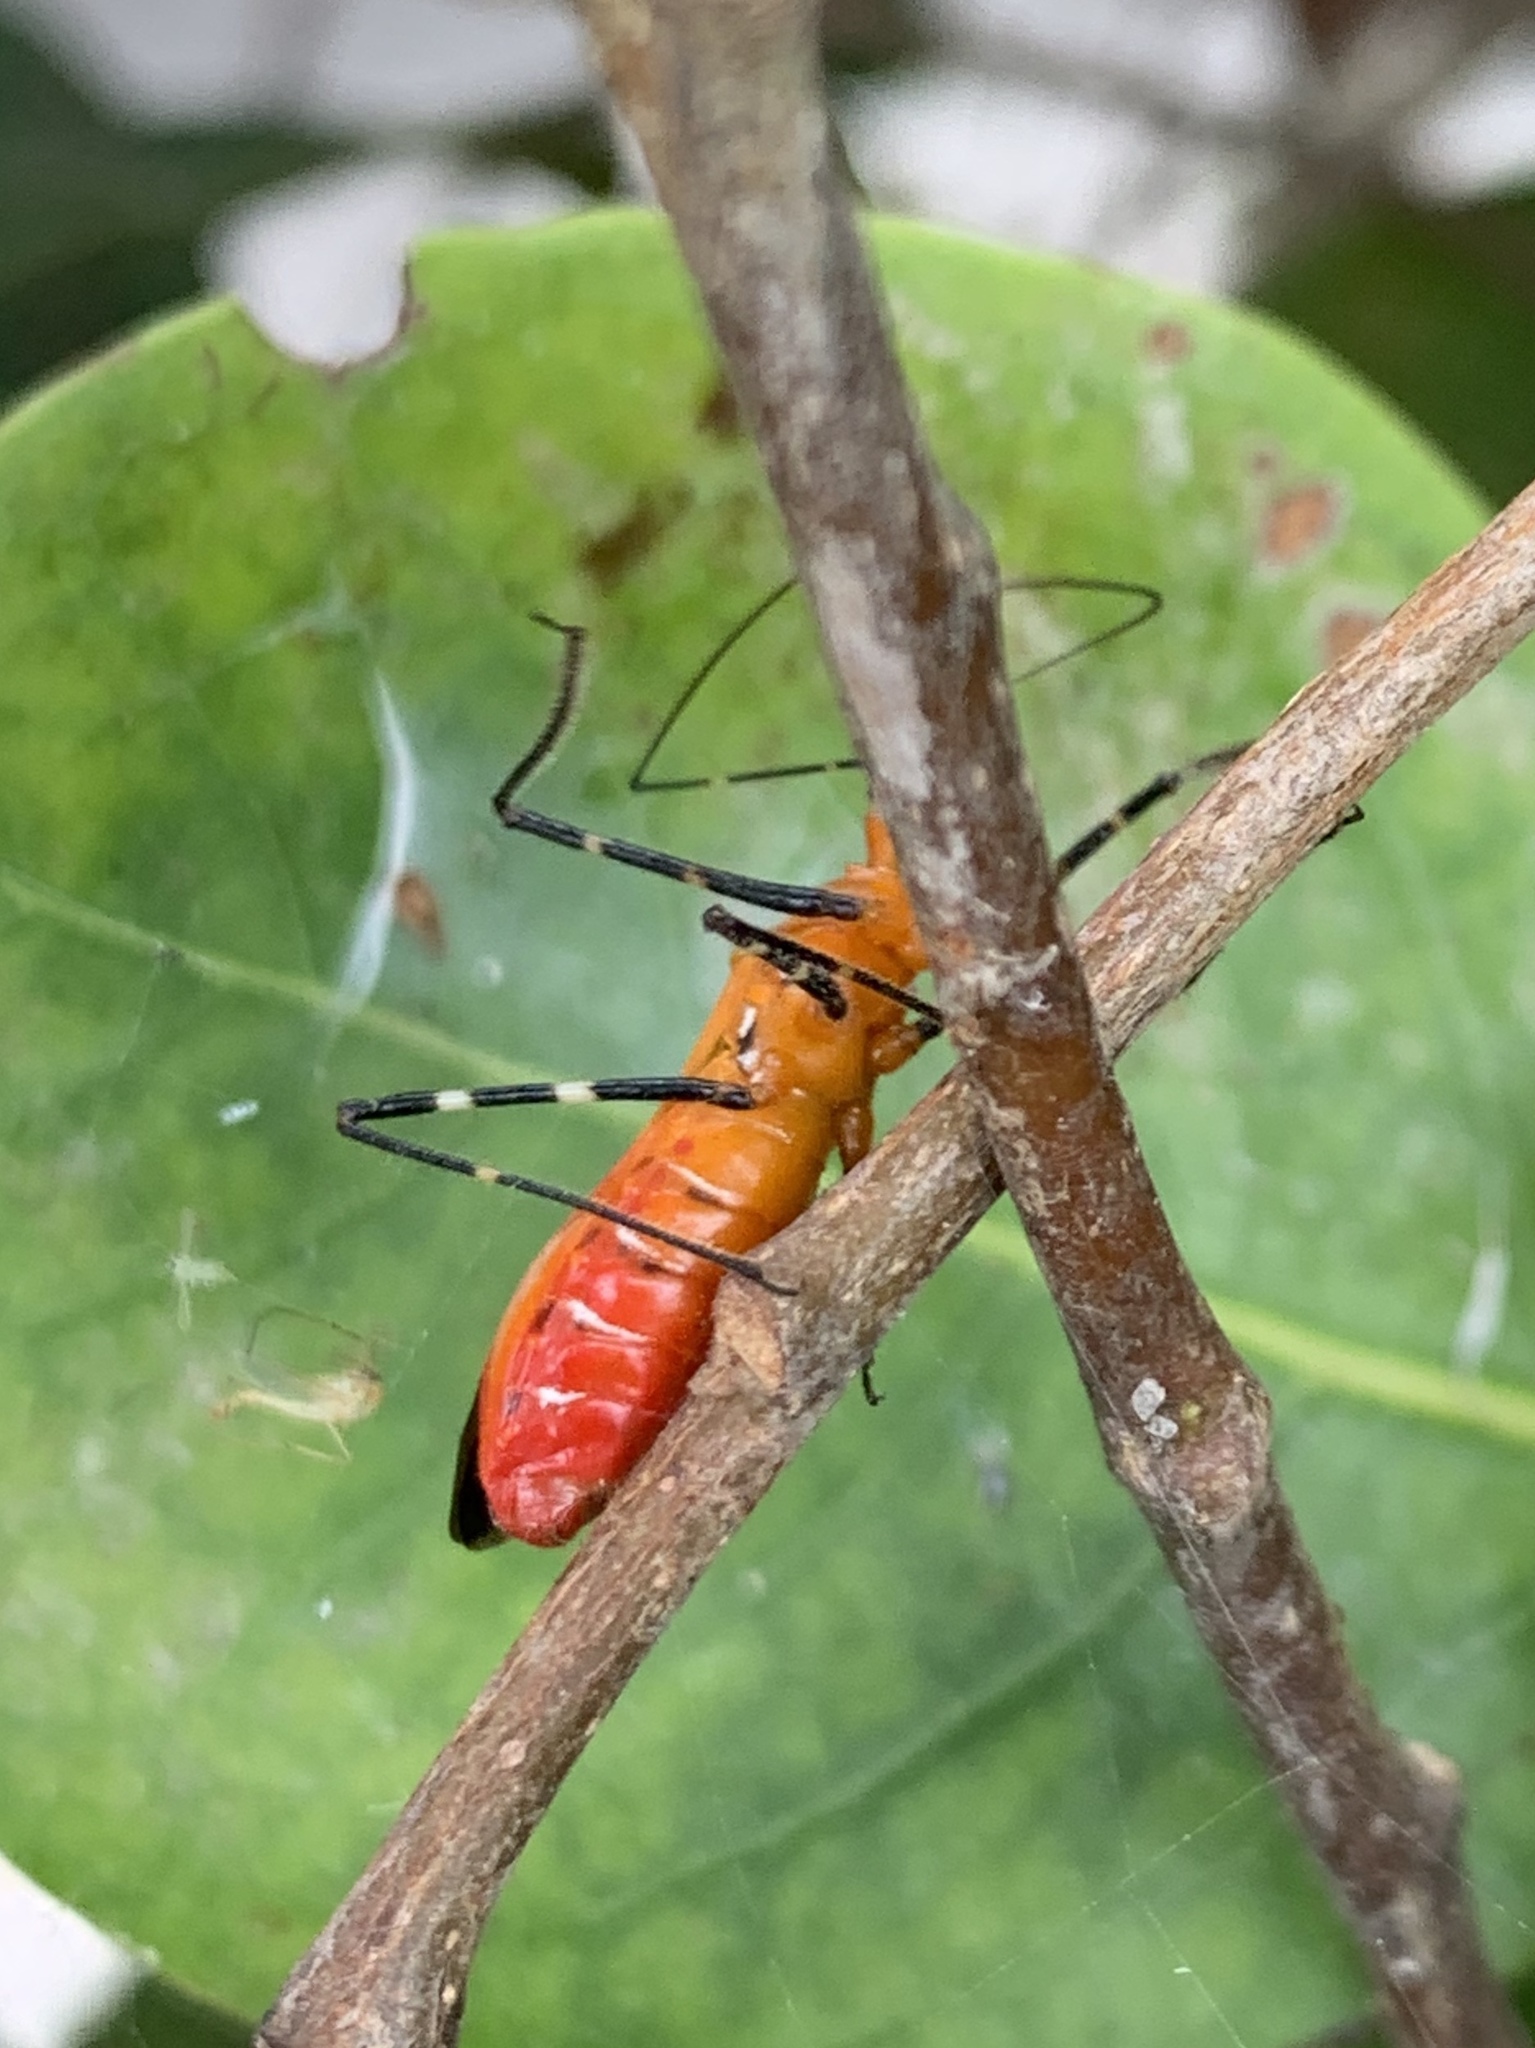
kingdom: Animalia
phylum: Arthropoda
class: Insecta
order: Hemiptera
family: Reduviidae
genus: Zelus
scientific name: Zelus longipes
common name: Milkweed assassin bug
